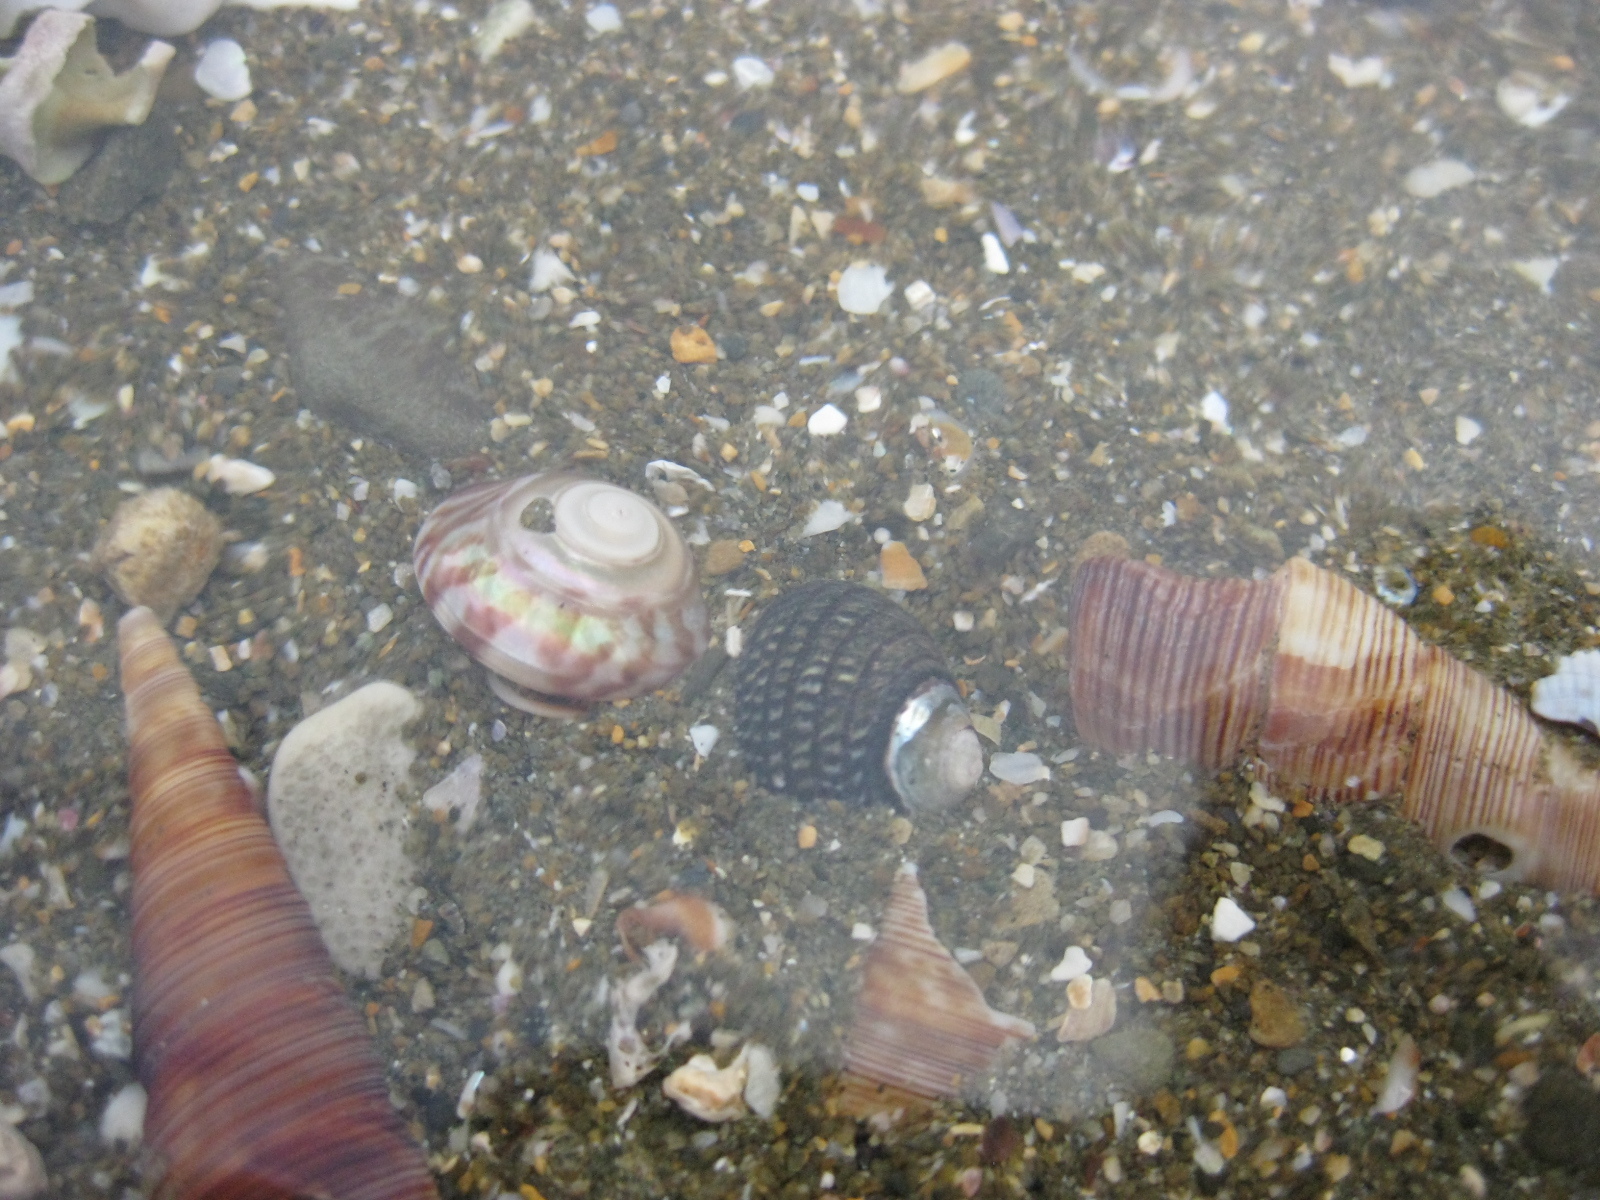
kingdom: Animalia
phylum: Mollusca
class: Gastropoda
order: Trochida
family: Trochidae
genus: Zethalia
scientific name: Zethalia zelandica
